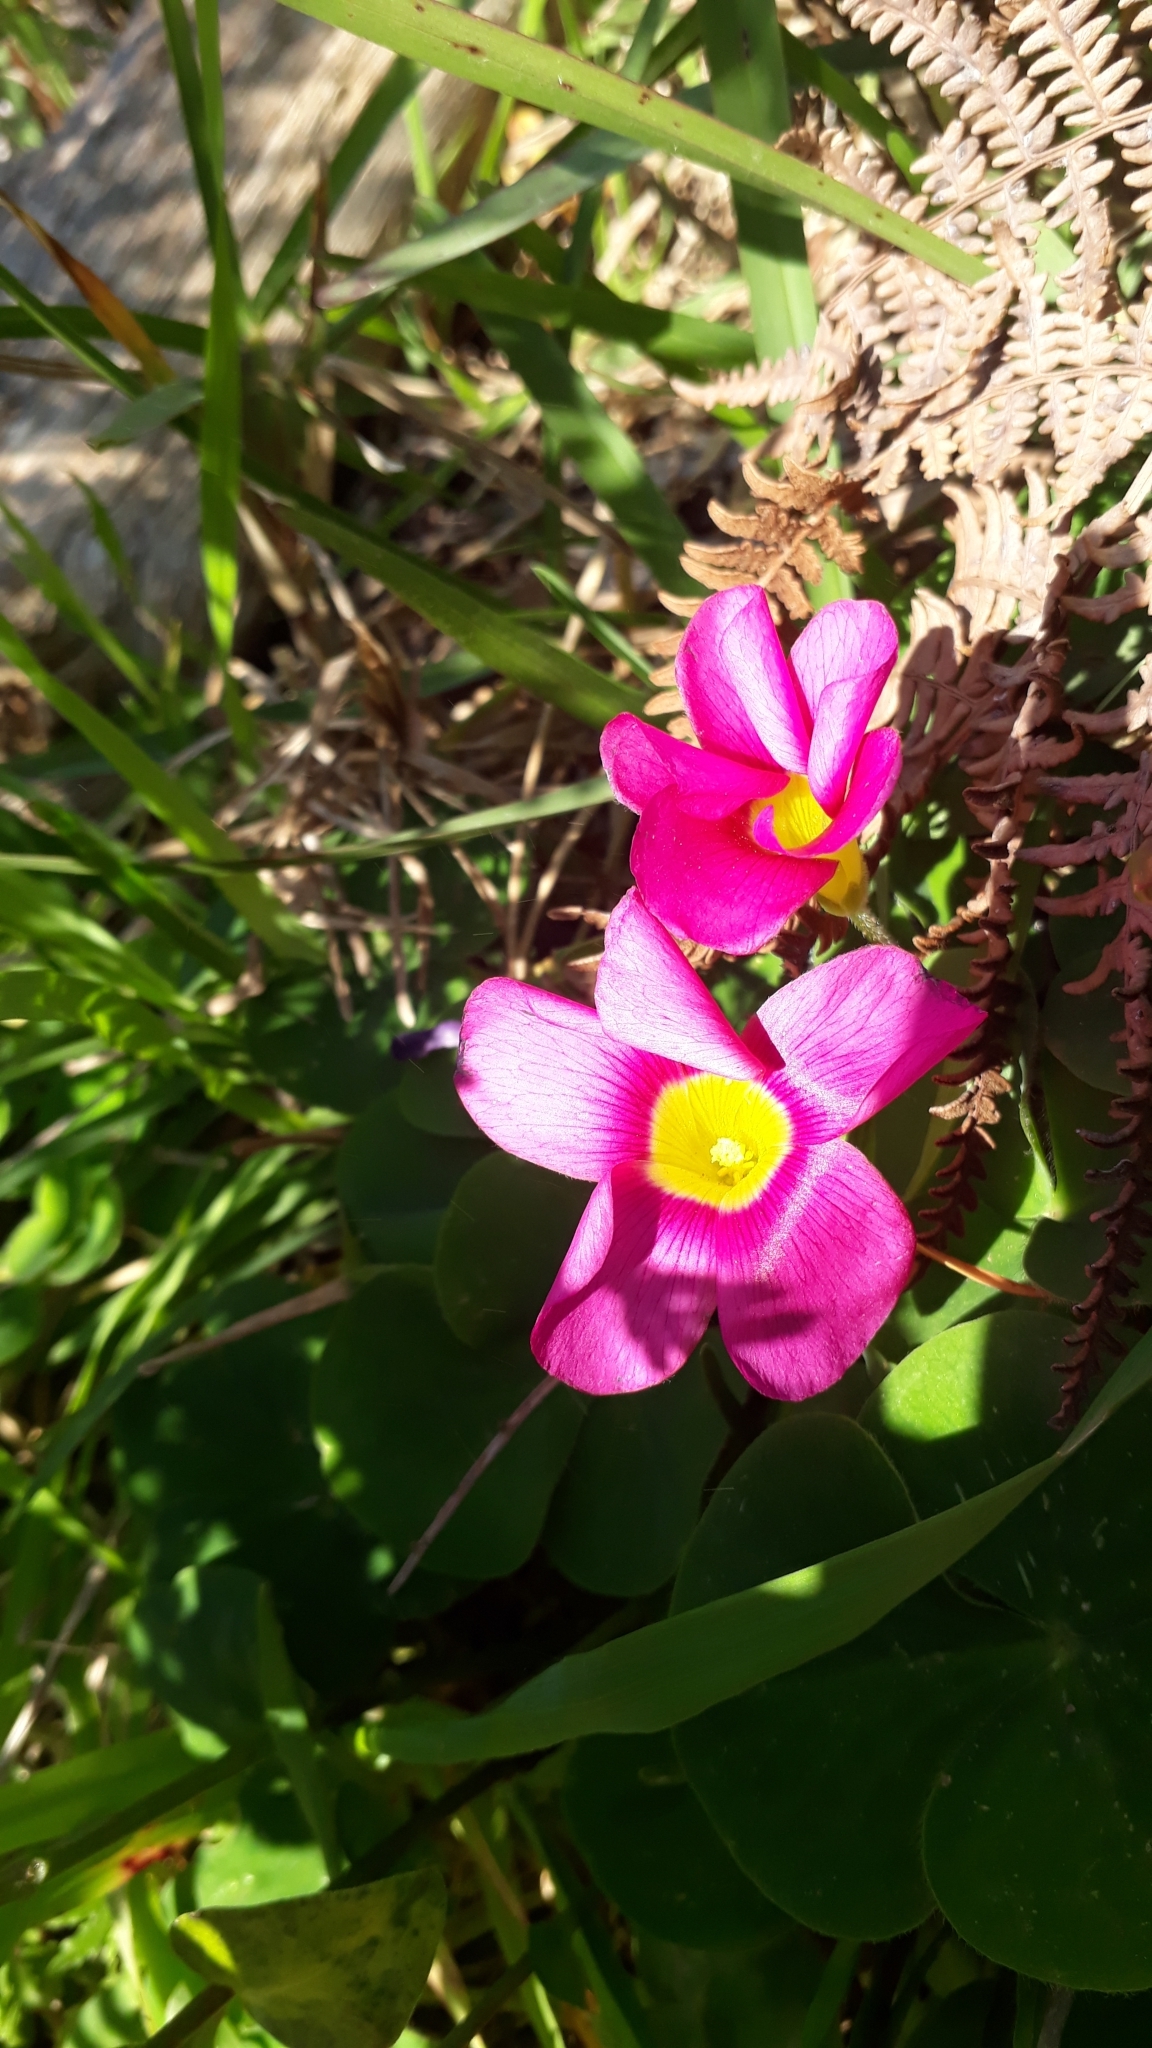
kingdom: Plantae
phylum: Tracheophyta
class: Magnoliopsida
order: Oxalidales
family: Oxalidaceae
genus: Oxalis
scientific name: Oxalis purpurea
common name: Purple woodsorrel
